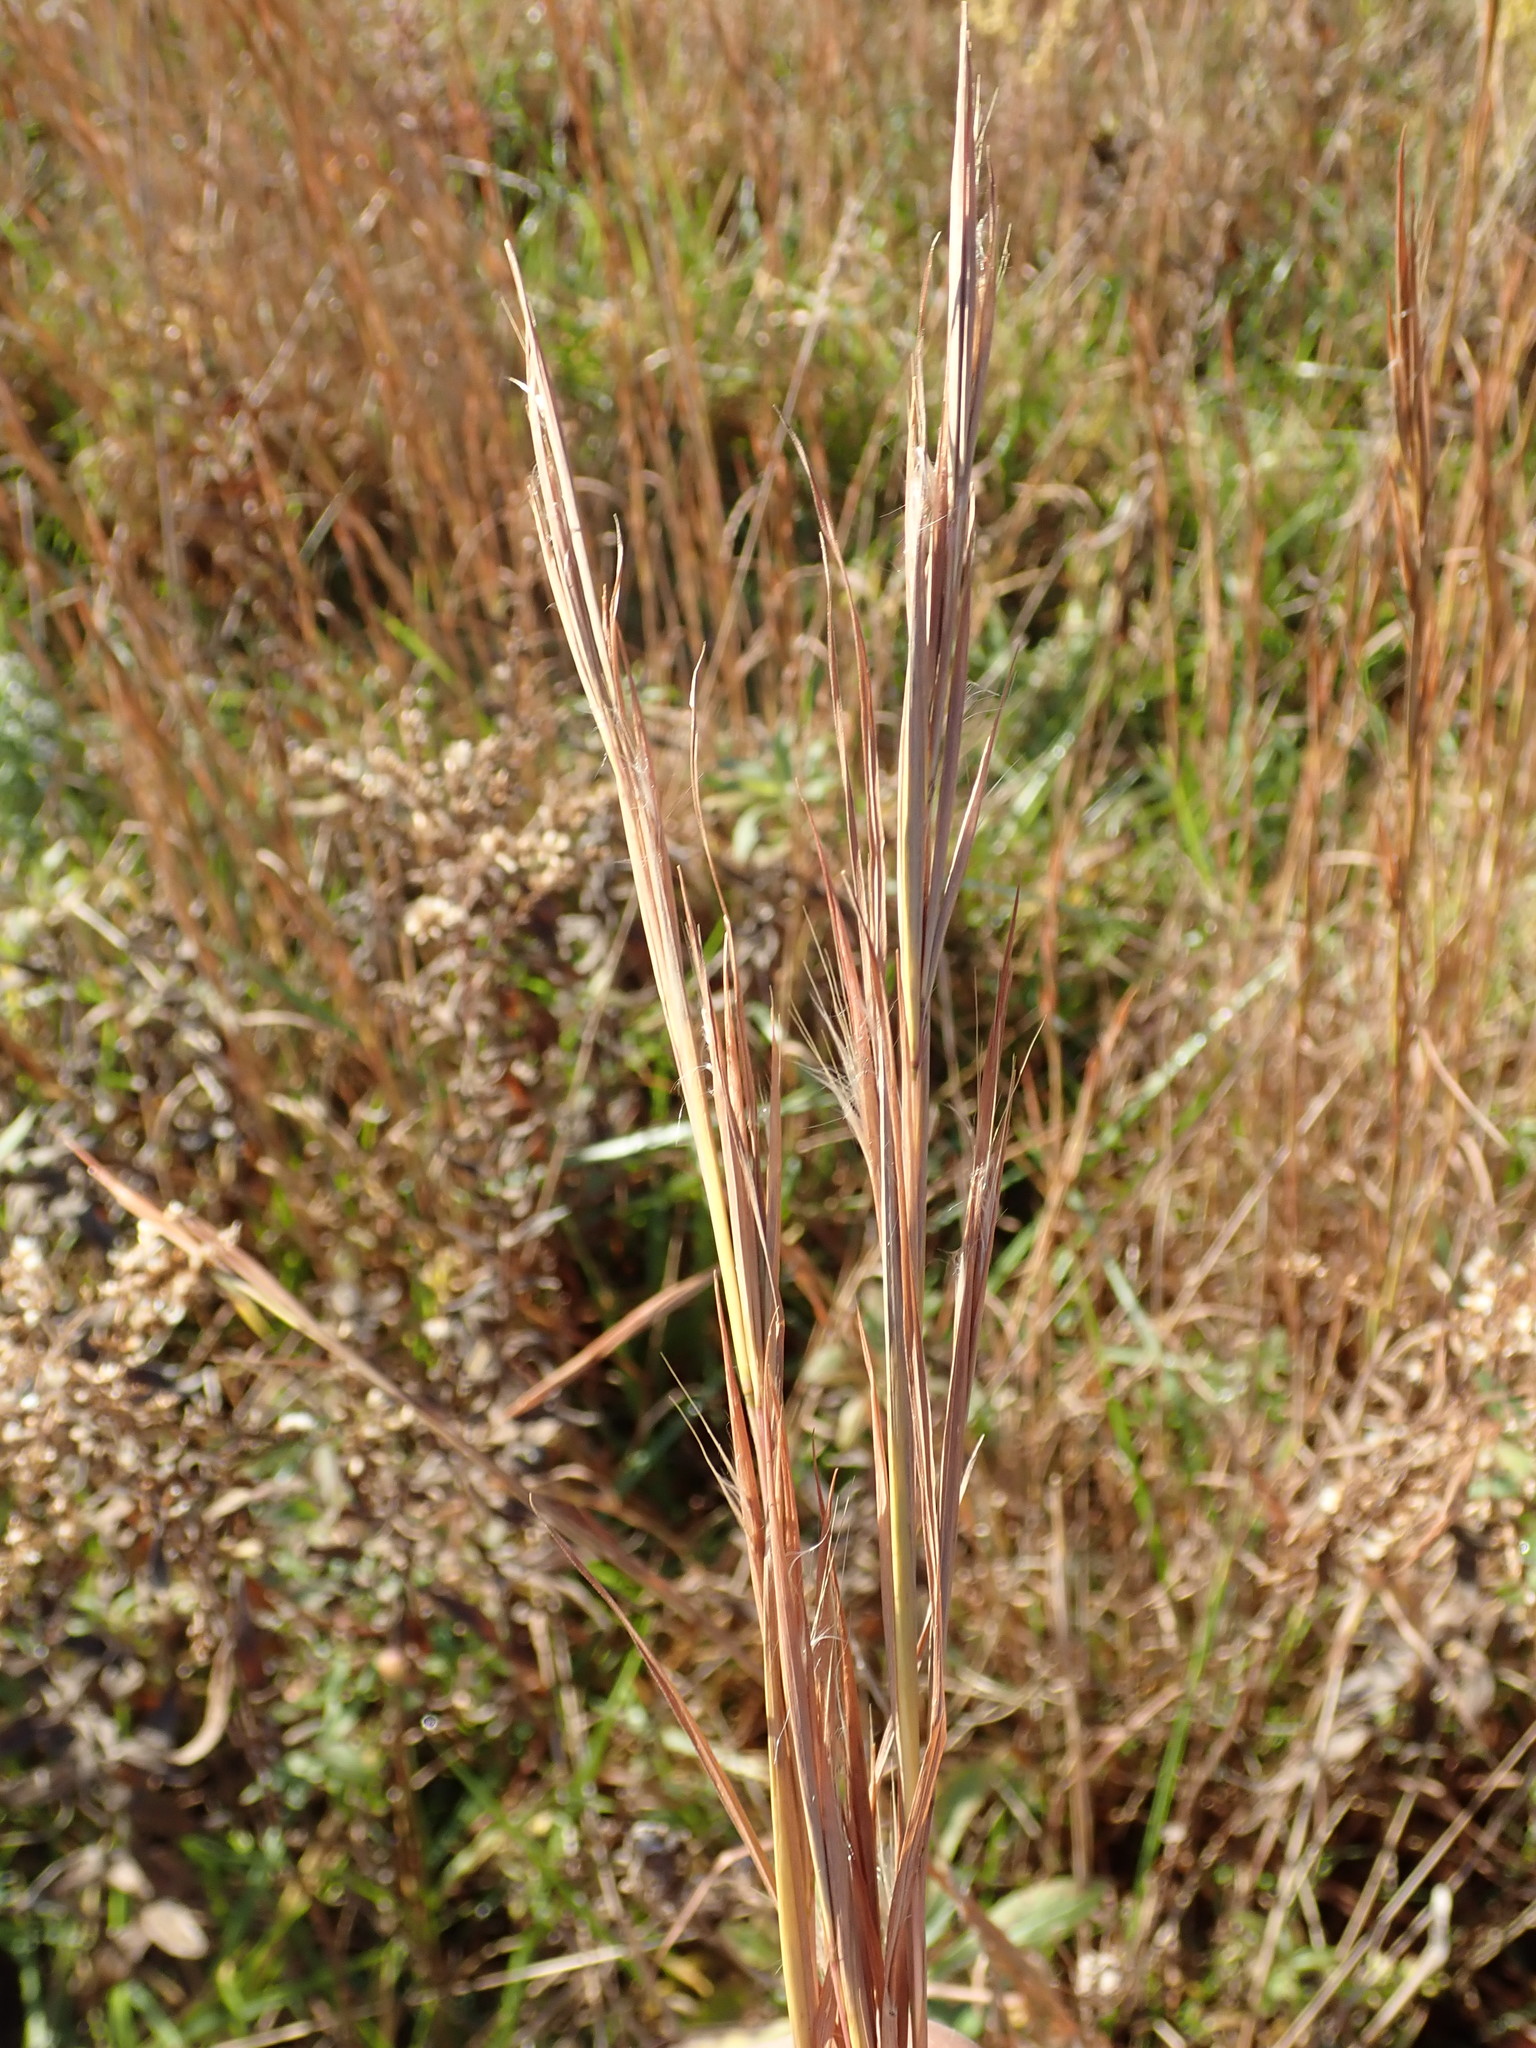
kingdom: Plantae
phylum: Tracheophyta
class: Liliopsida
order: Poales
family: Poaceae
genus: Andropogon
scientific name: Andropogon virginicus
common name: Broomsedge bluestem
